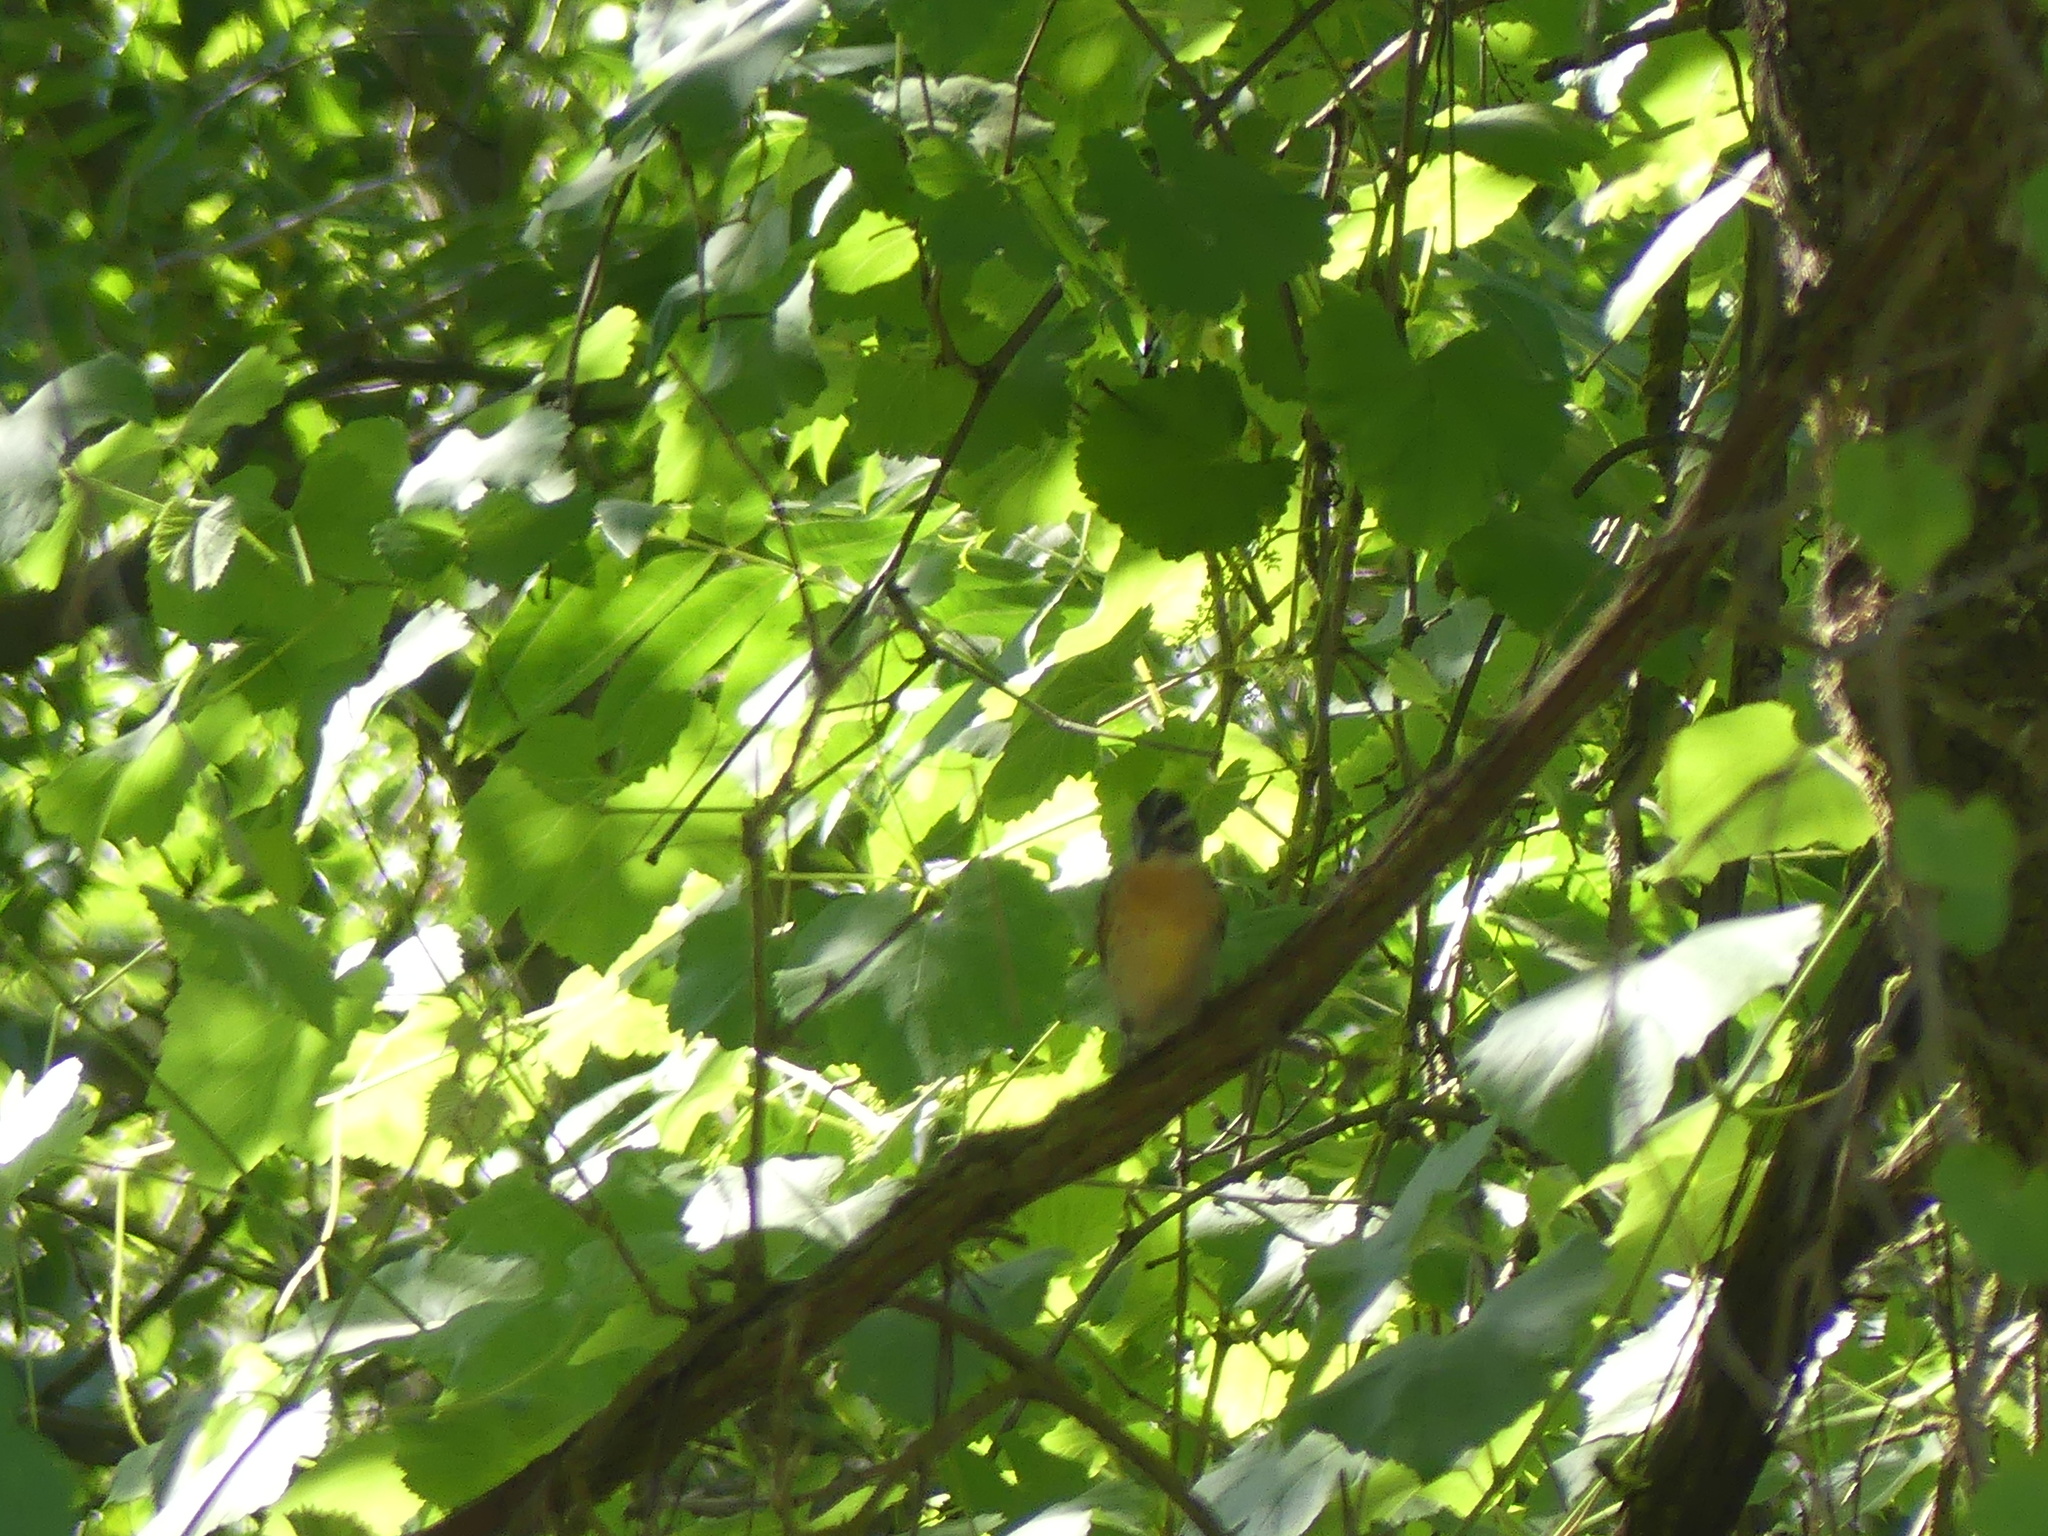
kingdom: Animalia
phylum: Chordata
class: Aves
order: Passeriformes
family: Cardinalidae
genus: Pheucticus
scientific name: Pheucticus melanocephalus
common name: Black-headed grosbeak
